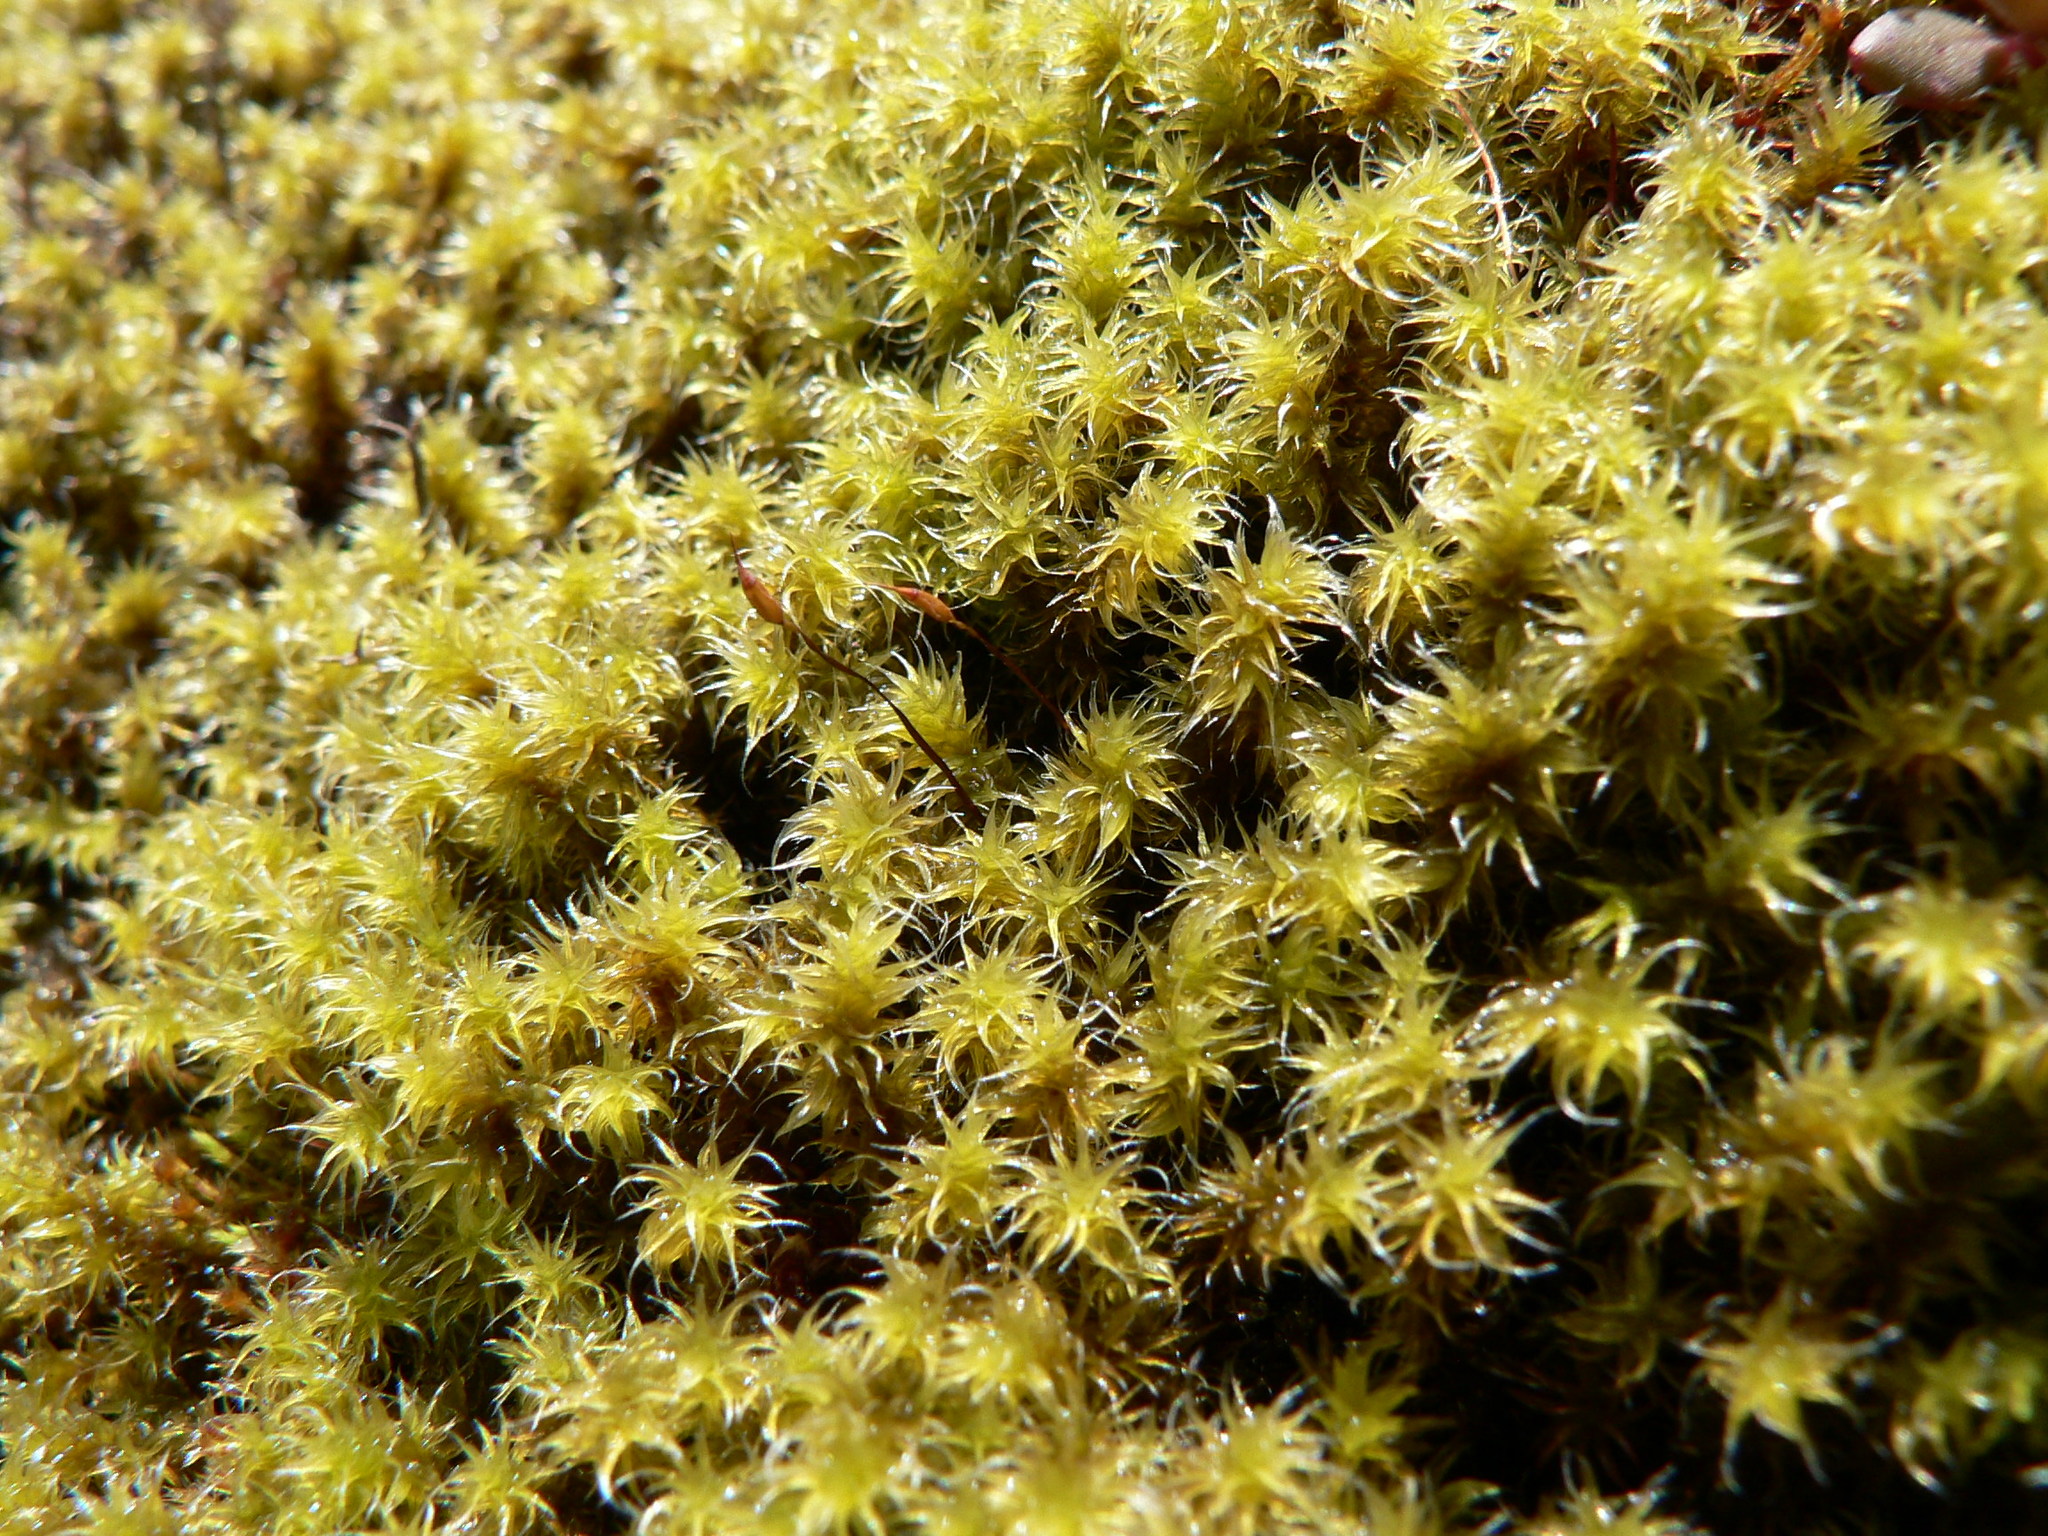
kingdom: Plantae
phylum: Bryophyta
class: Bryopsida
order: Grimmiales
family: Grimmiaceae
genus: Niphotrichum
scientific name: Niphotrichum elongatum
